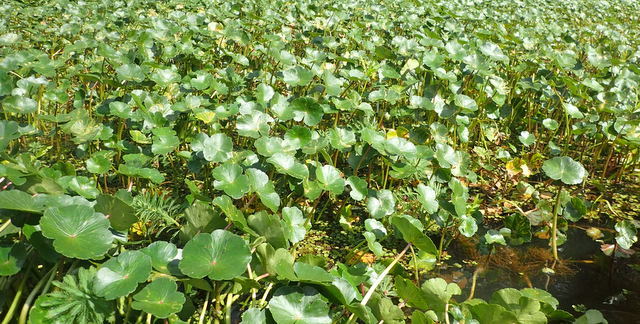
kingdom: Plantae
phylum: Tracheophyta
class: Magnoliopsida
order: Apiales
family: Araliaceae
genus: Hydrocotyle
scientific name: Hydrocotyle ranunculoides
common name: Floating pennywort
